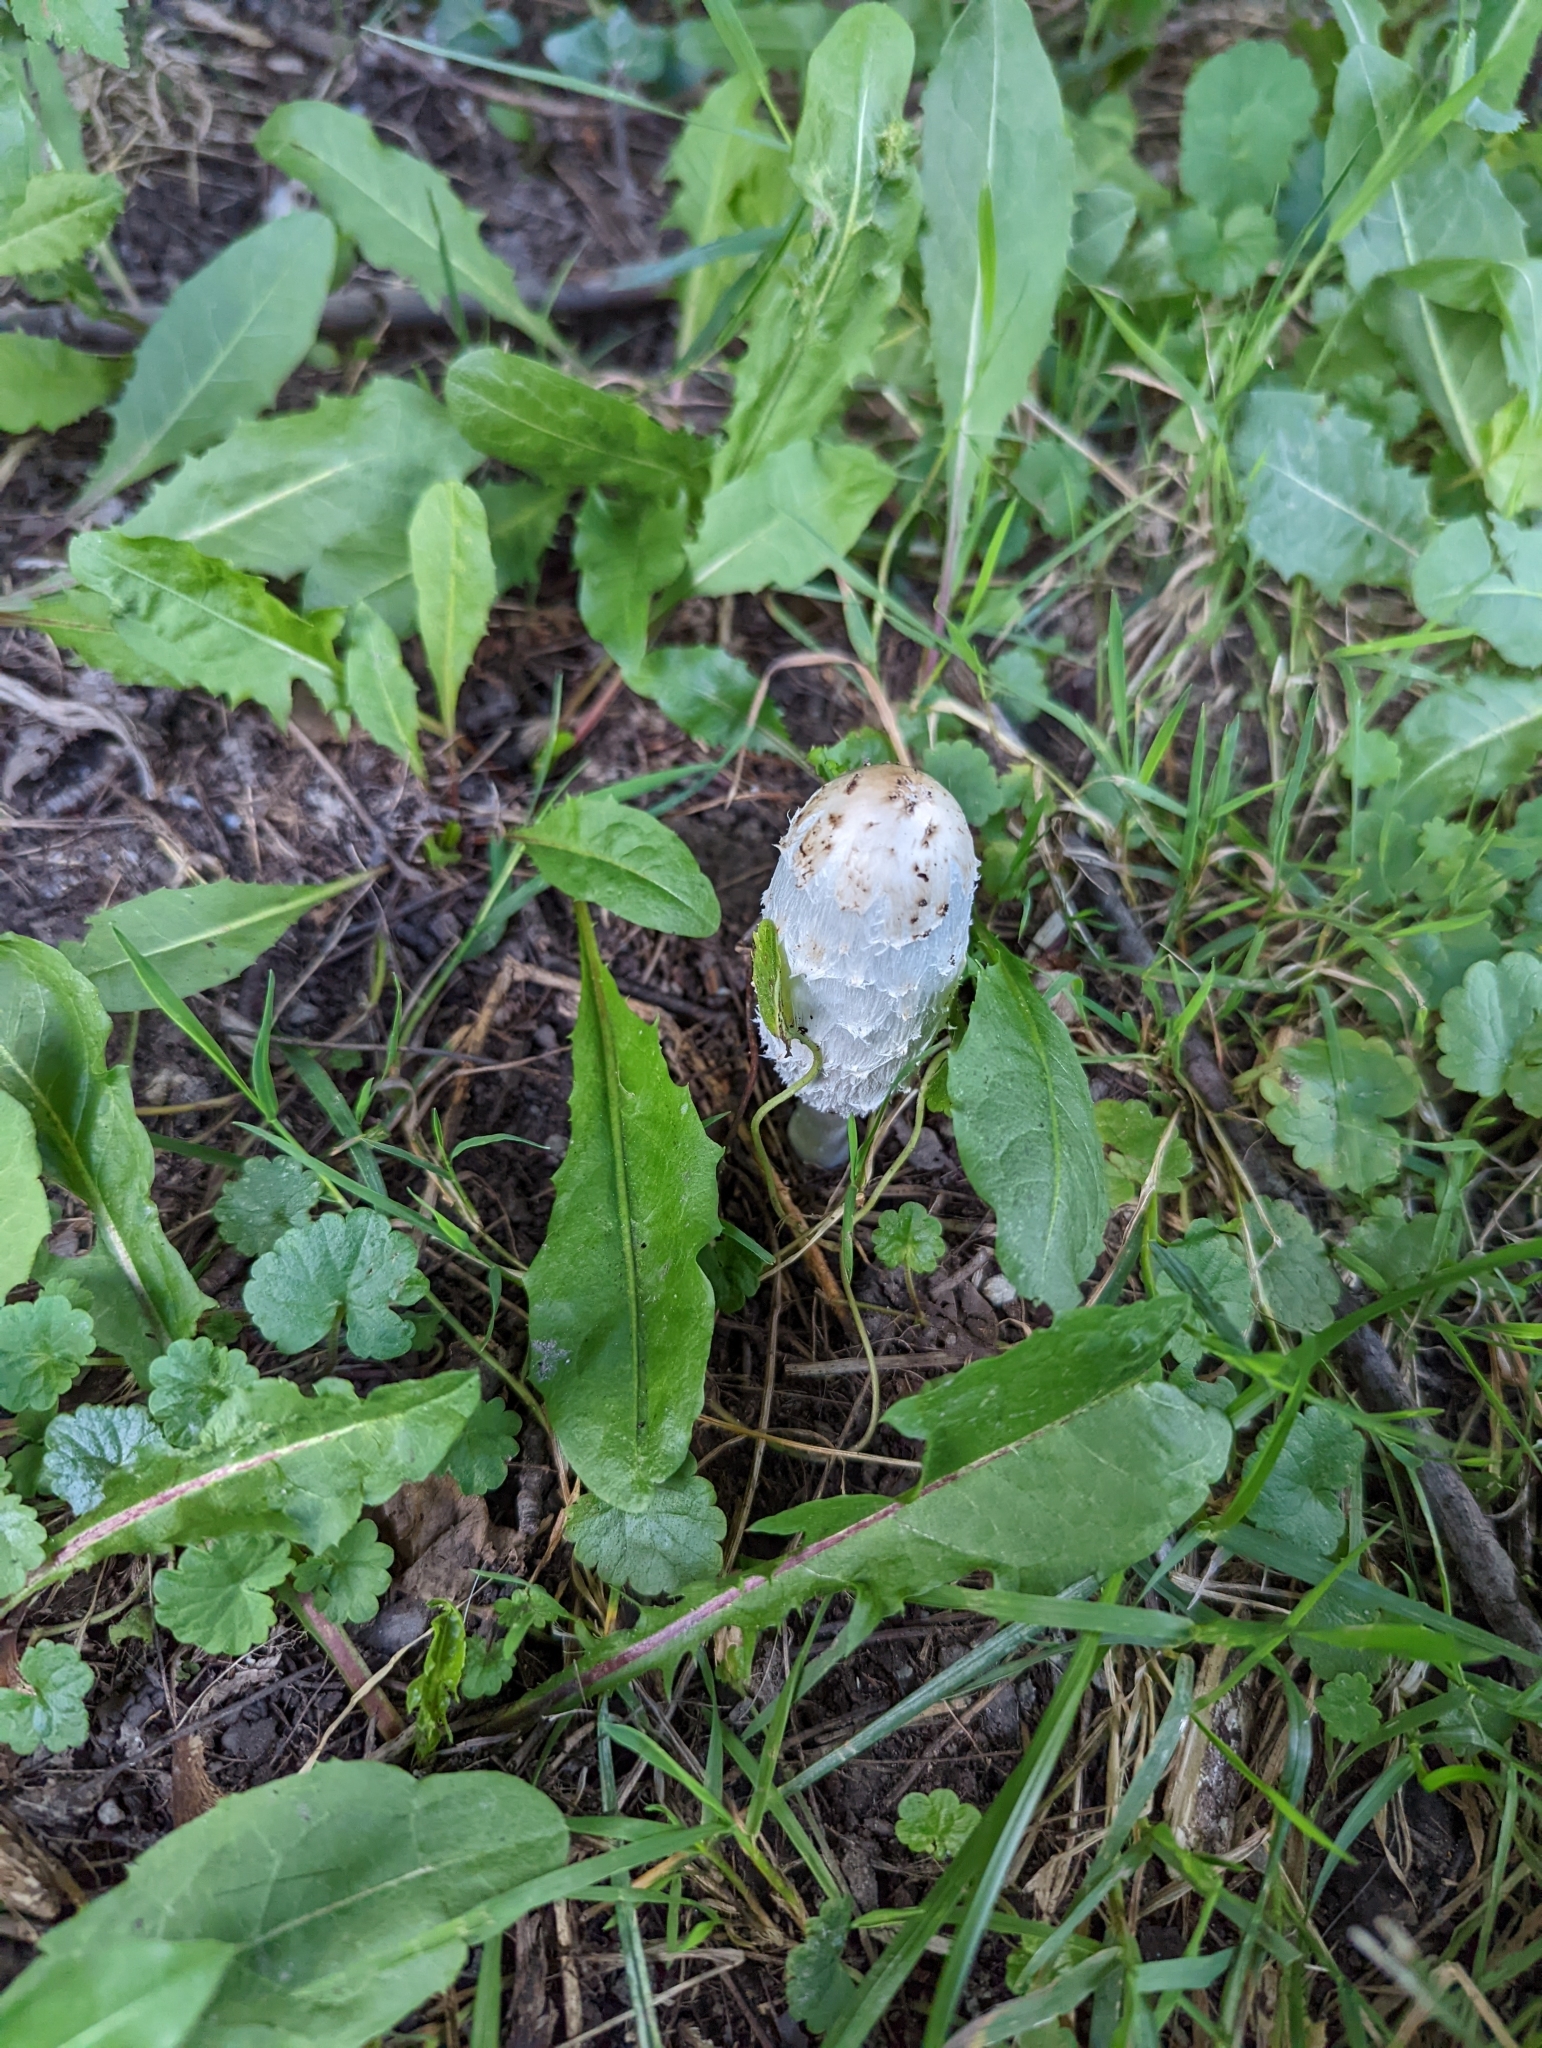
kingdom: Fungi
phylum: Basidiomycota
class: Agaricomycetes
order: Agaricales
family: Agaricaceae
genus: Coprinus
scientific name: Coprinus comatus
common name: Lawyer's wig
